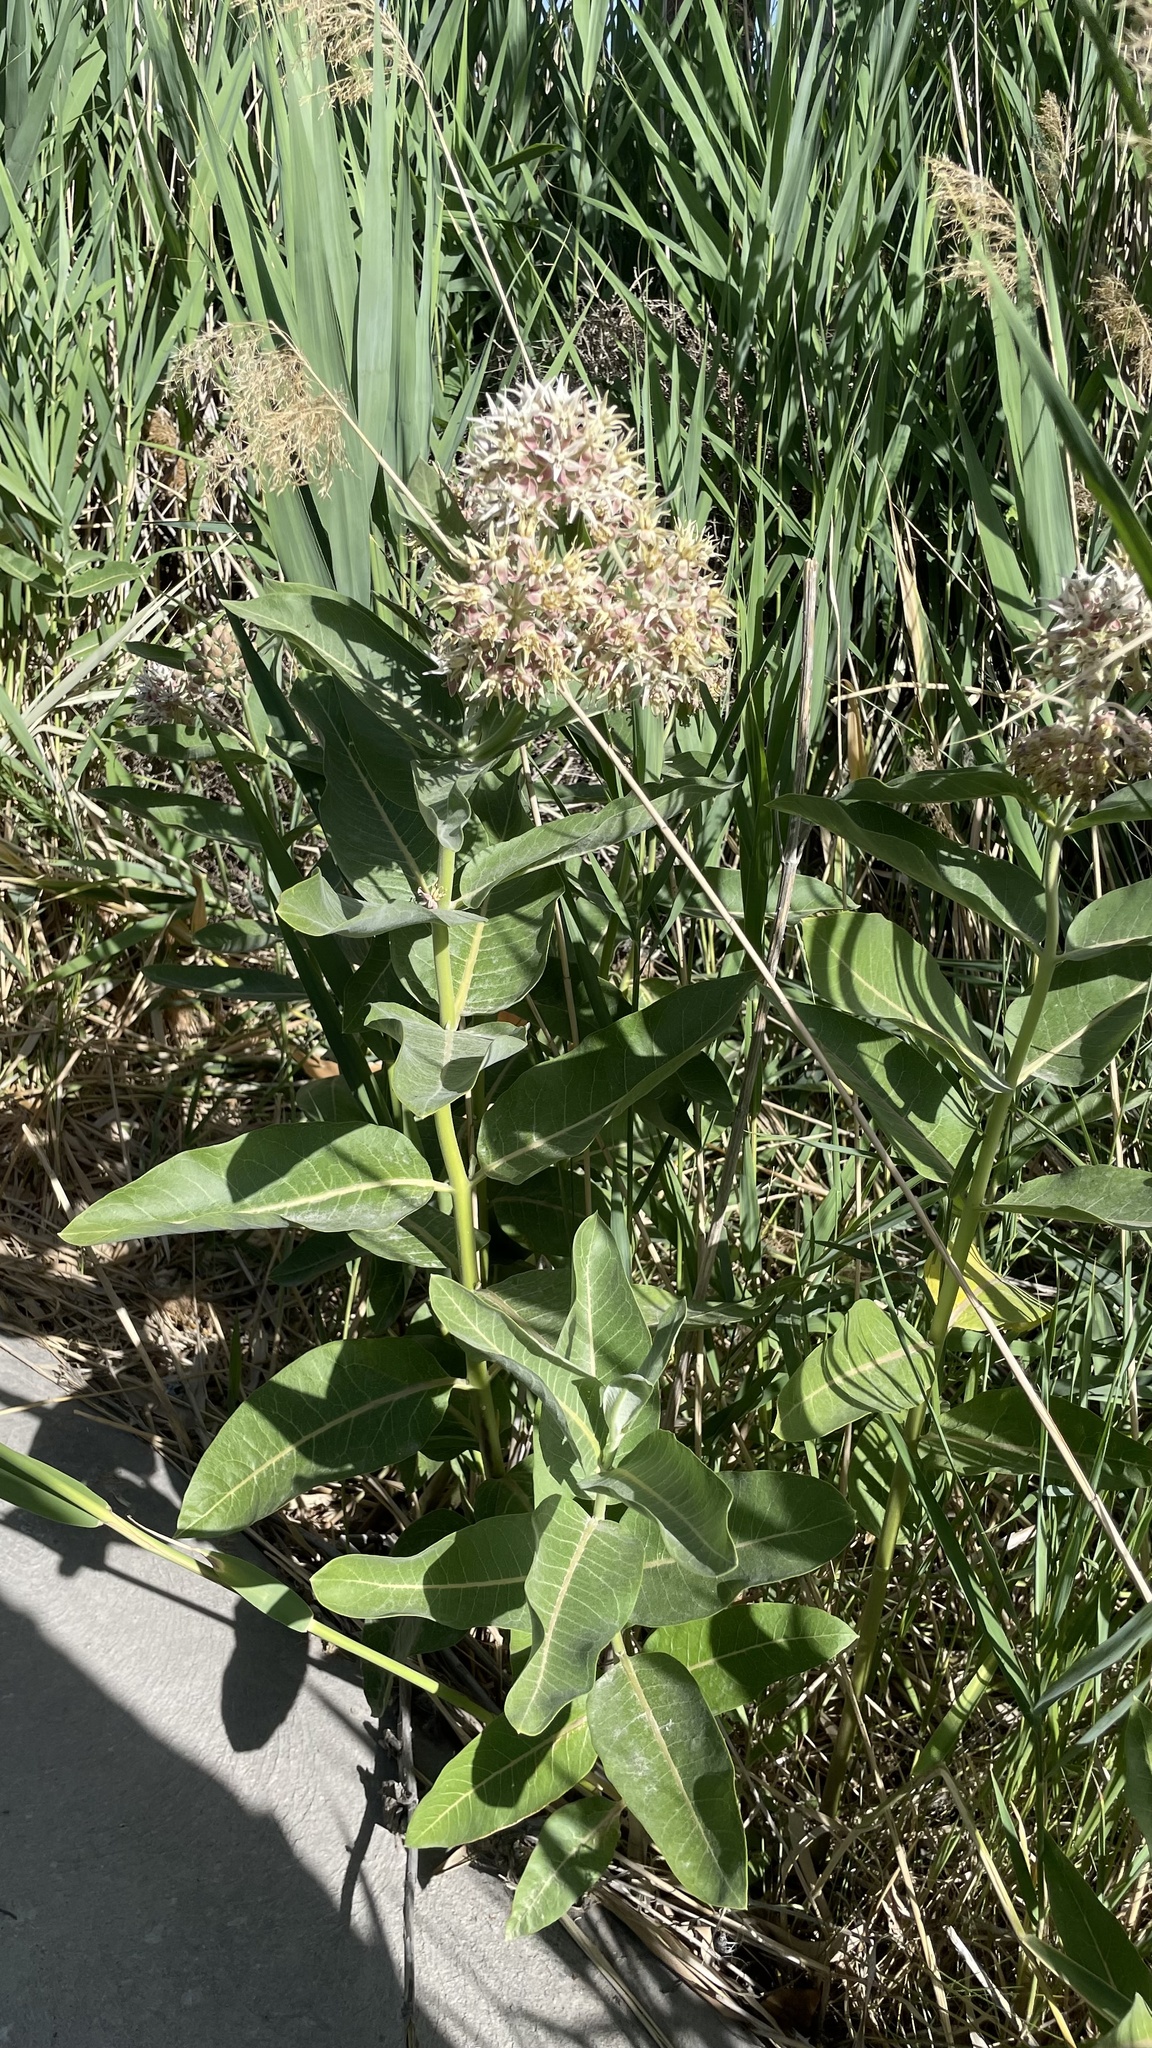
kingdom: Plantae
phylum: Tracheophyta
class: Magnoliopsida
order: Gentianales
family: Apocynaceae
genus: Asclepias
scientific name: Asclepias speciosa
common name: Showy milkweed
